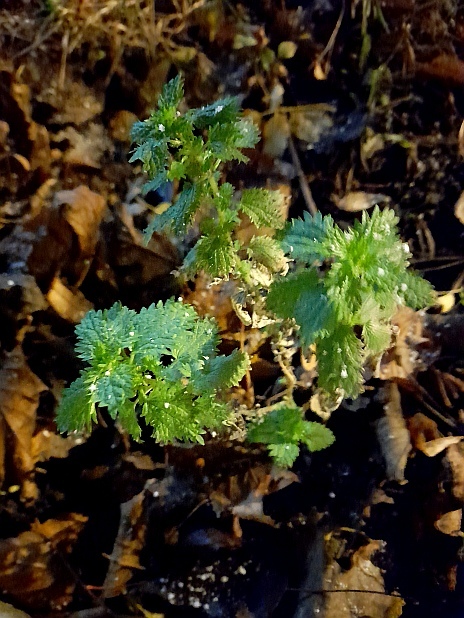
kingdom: Plantae
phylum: Tracheophyta
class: Magnoliopsida
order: Rosales
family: Urticaceae
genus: Urtica
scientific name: Urtica urens
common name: Dwarf nettle
